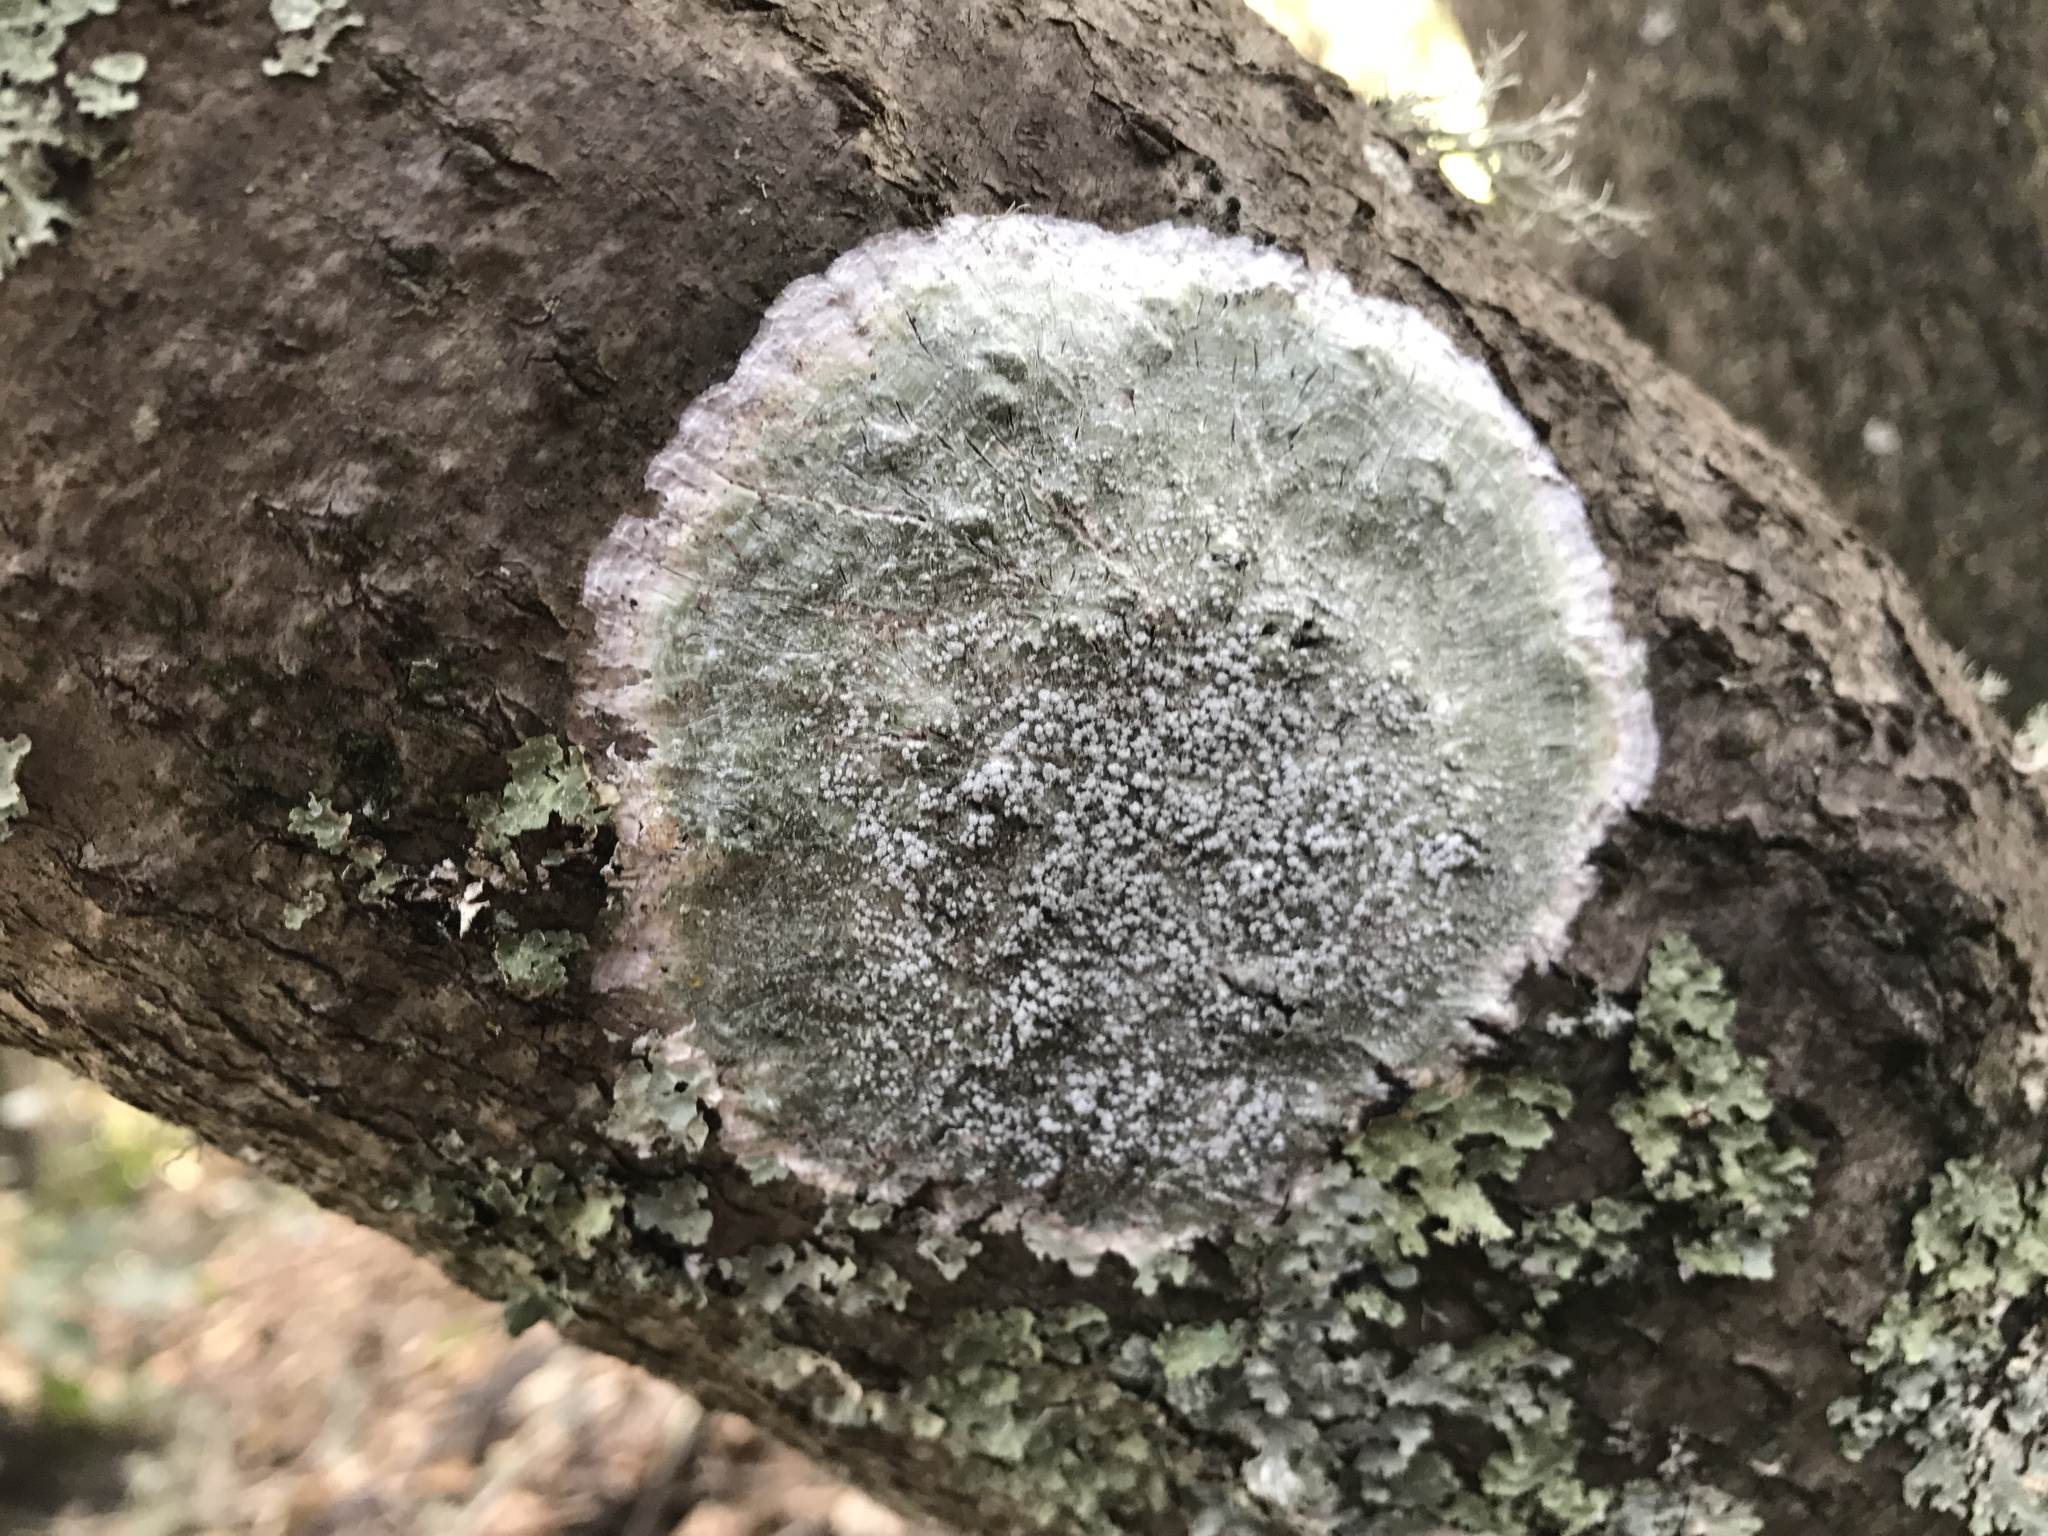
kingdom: Fungi
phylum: Ascomycota
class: Lecanoromycetes
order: Pertusariales
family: Pertusariaceae
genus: Lepra
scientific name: Lepra amara
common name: Bitter wart lichen
